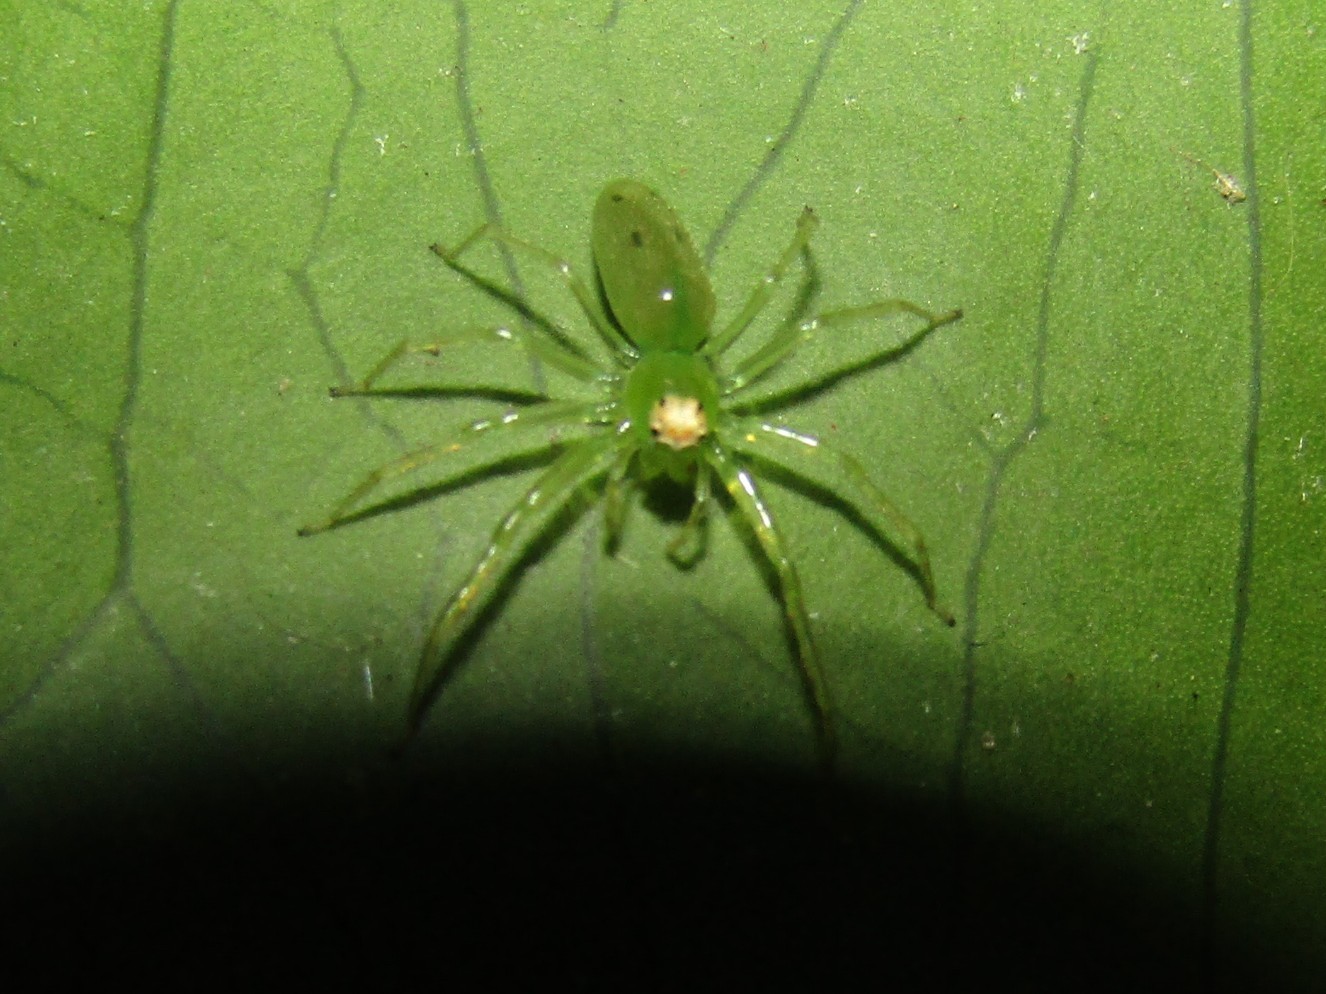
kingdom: Animalia
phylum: Arthropoda
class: Arachnida
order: Araneae
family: Salticidae
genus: Lyssomanes
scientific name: Lyssomanes pauper
